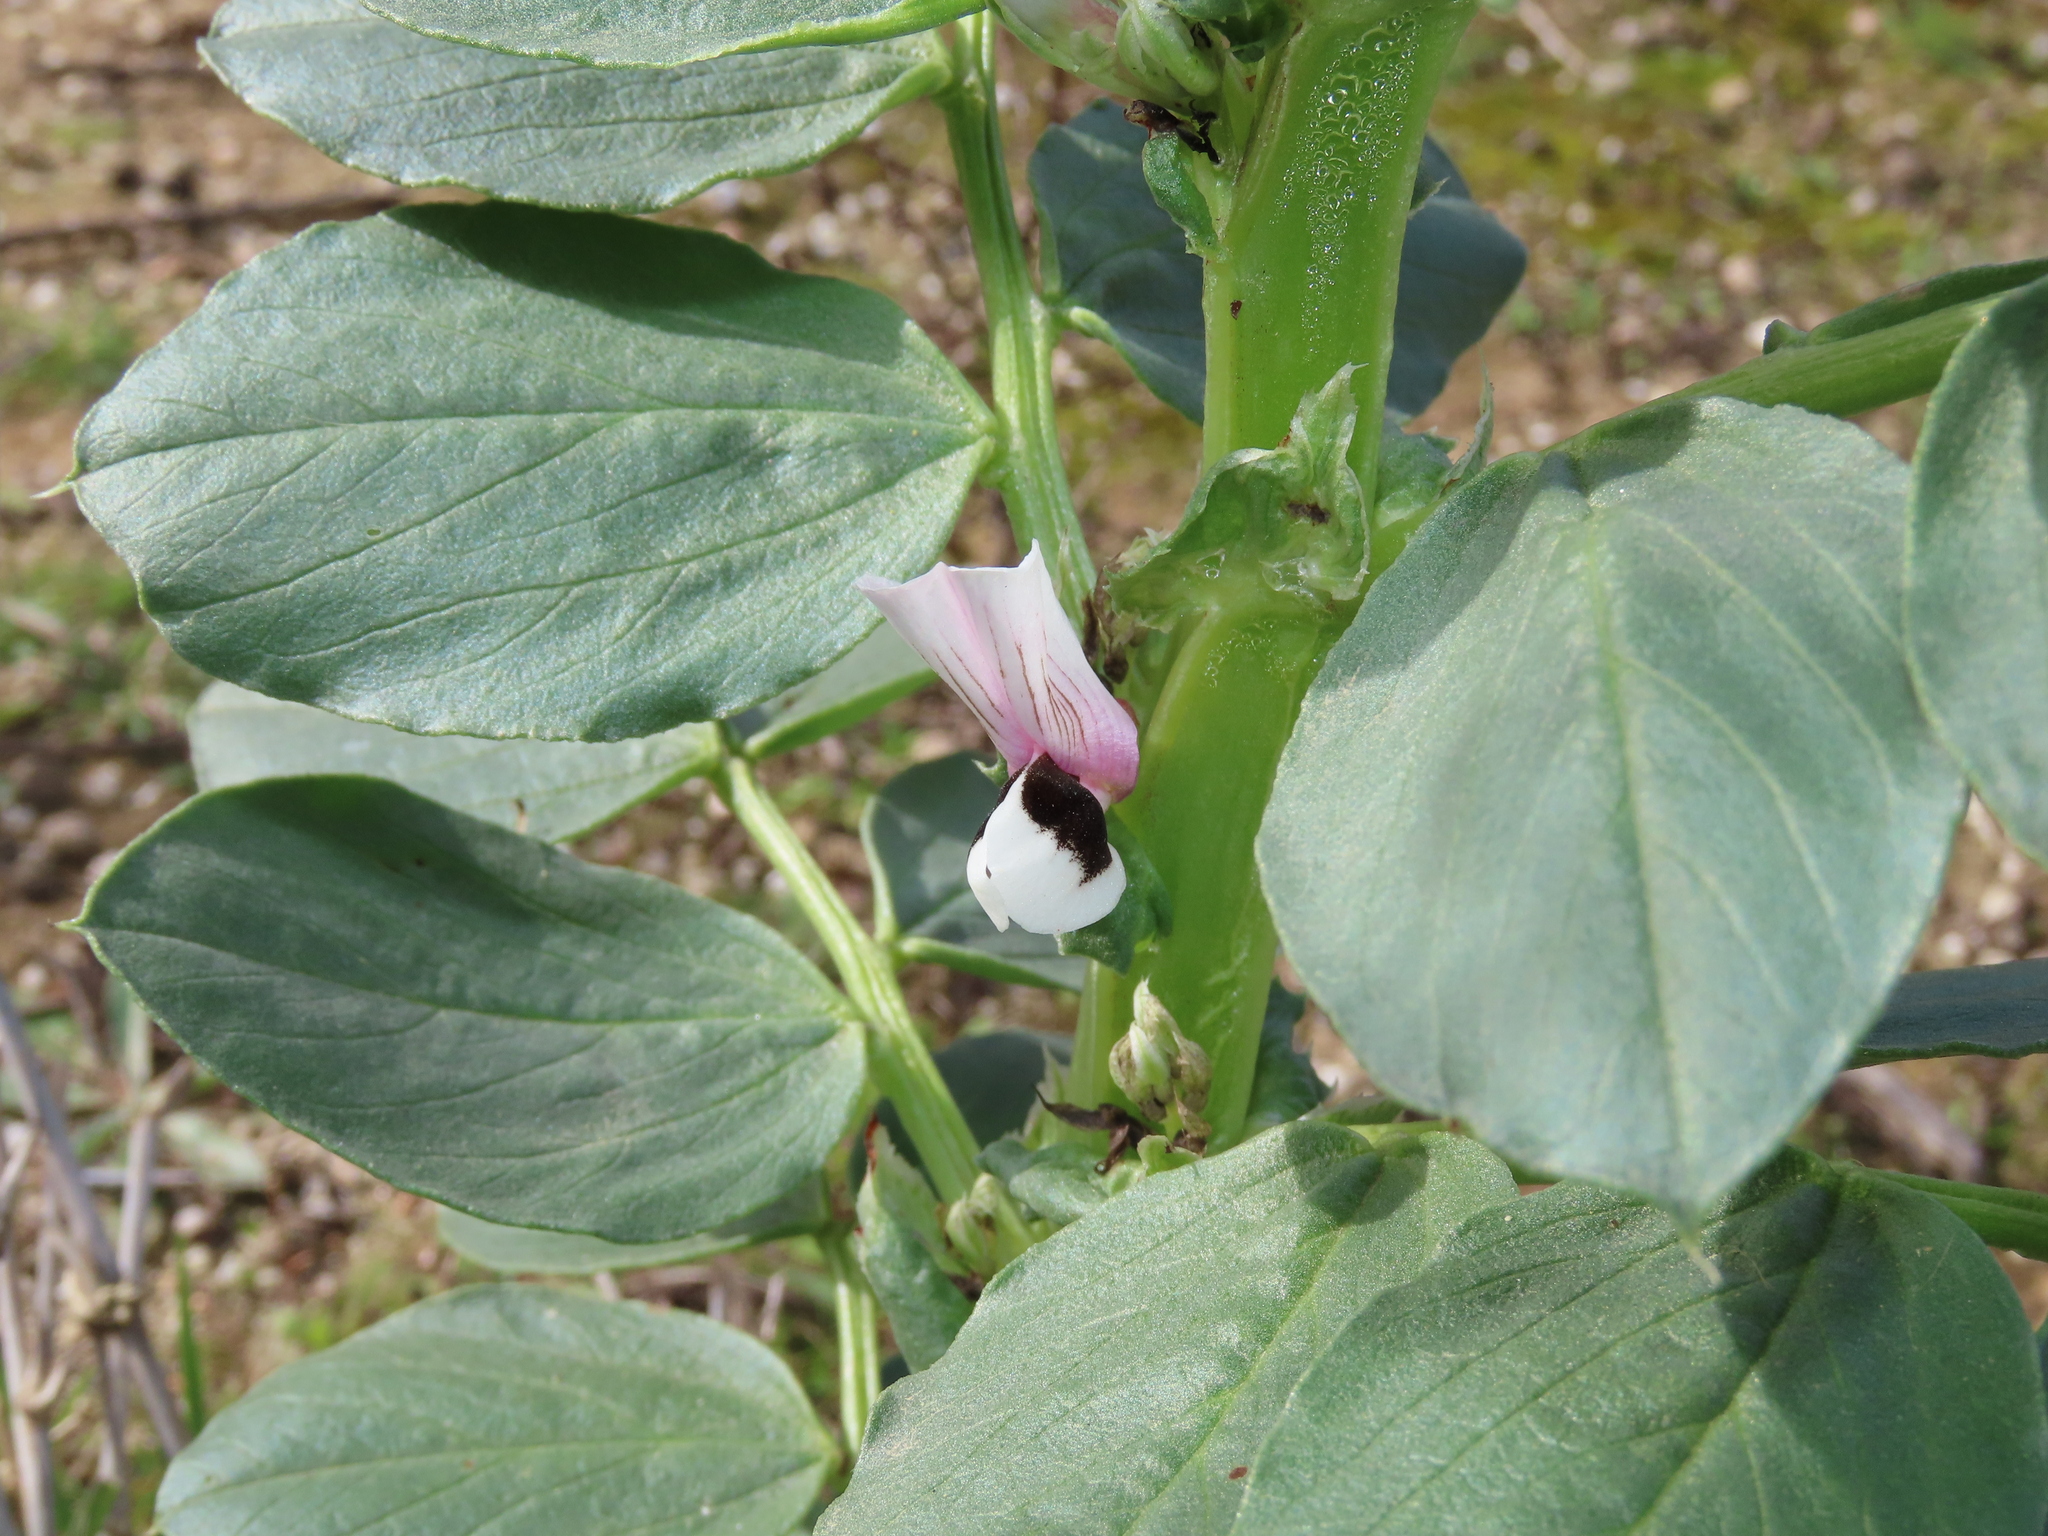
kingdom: Plantae
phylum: Tracheophyta
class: Magnoliopsida
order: Fabales
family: Fabaceae
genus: Vicia
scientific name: Vicia faba
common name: Broad bean
